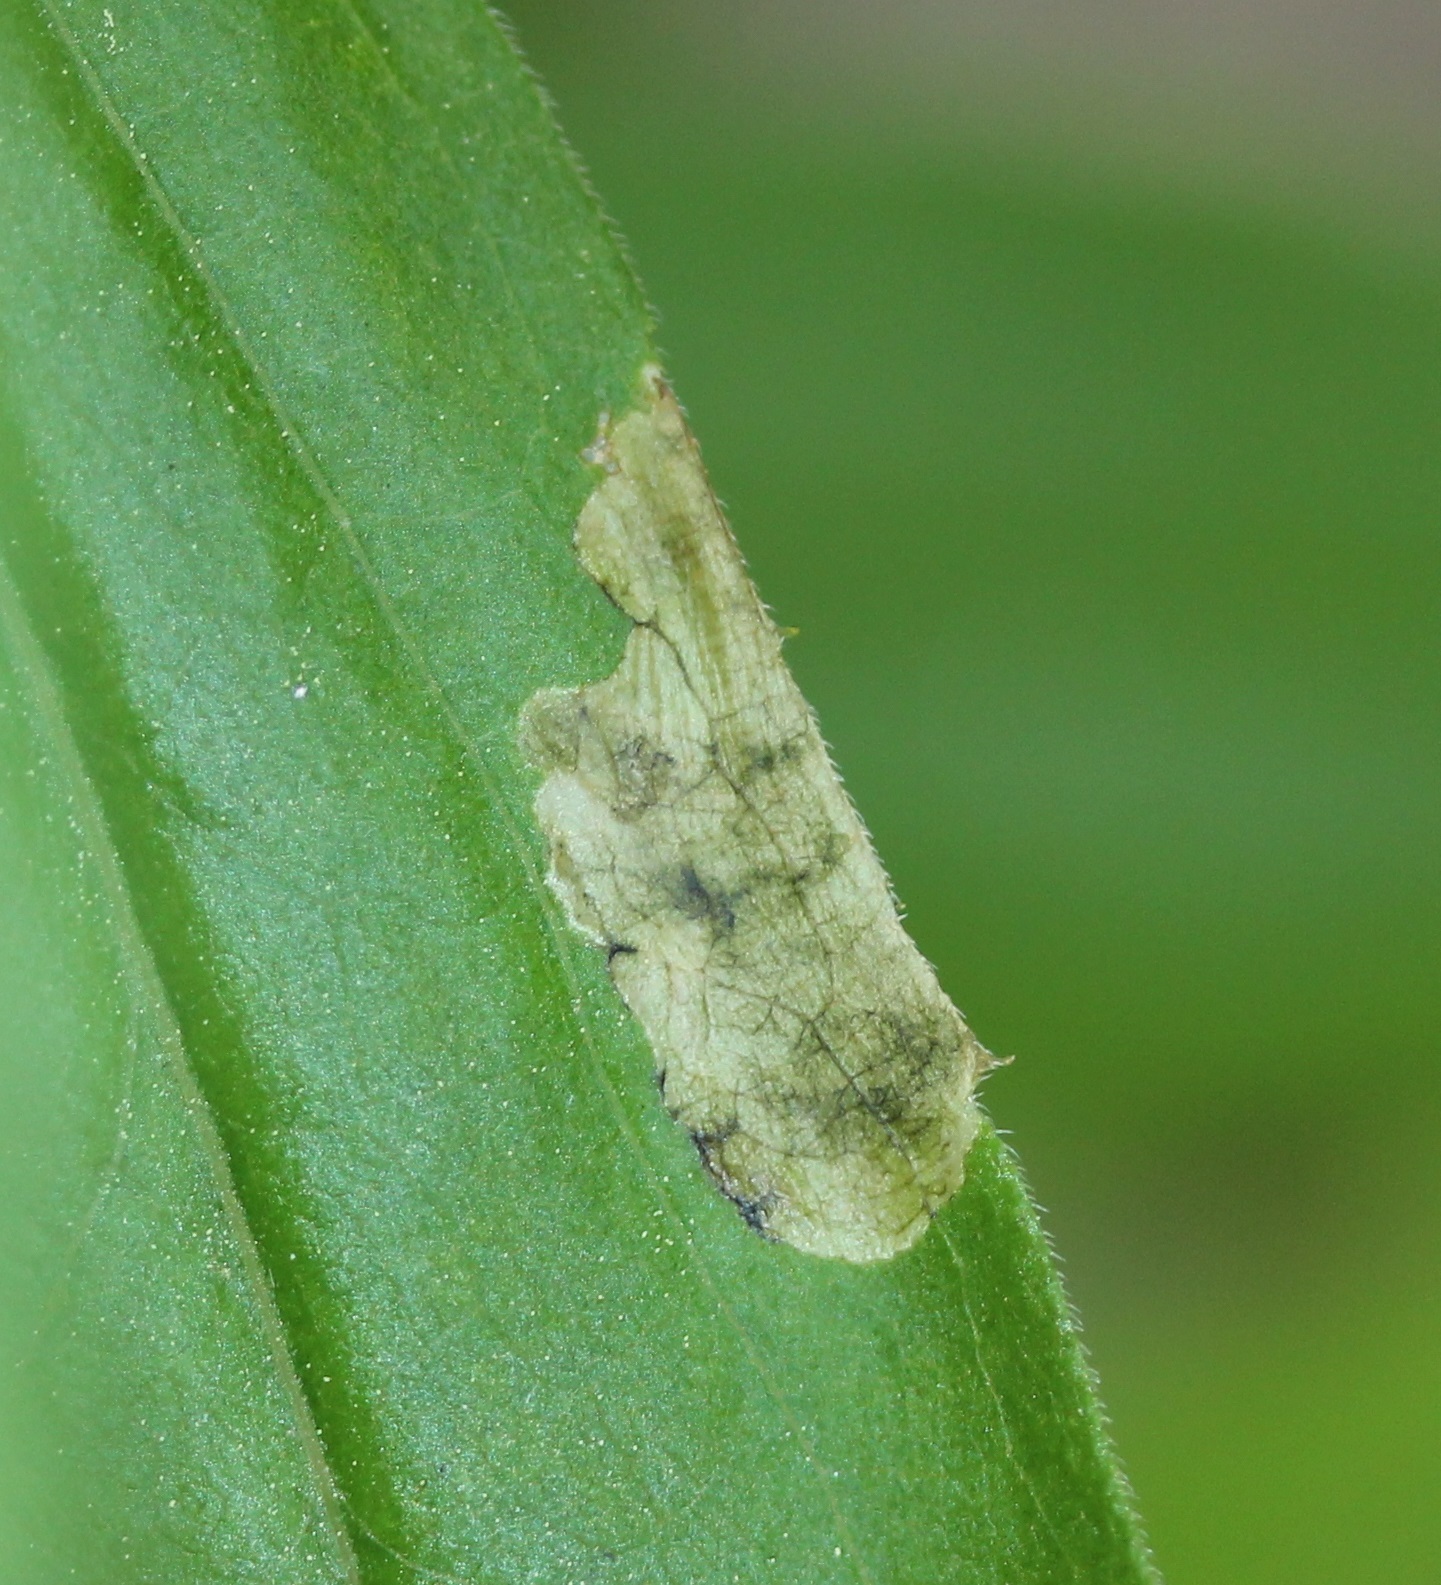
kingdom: Animalia
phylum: Arthropoda
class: Insecta
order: Diptera
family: Agromyzidae
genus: Nemorimyza
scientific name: Nemorimyza posticata
